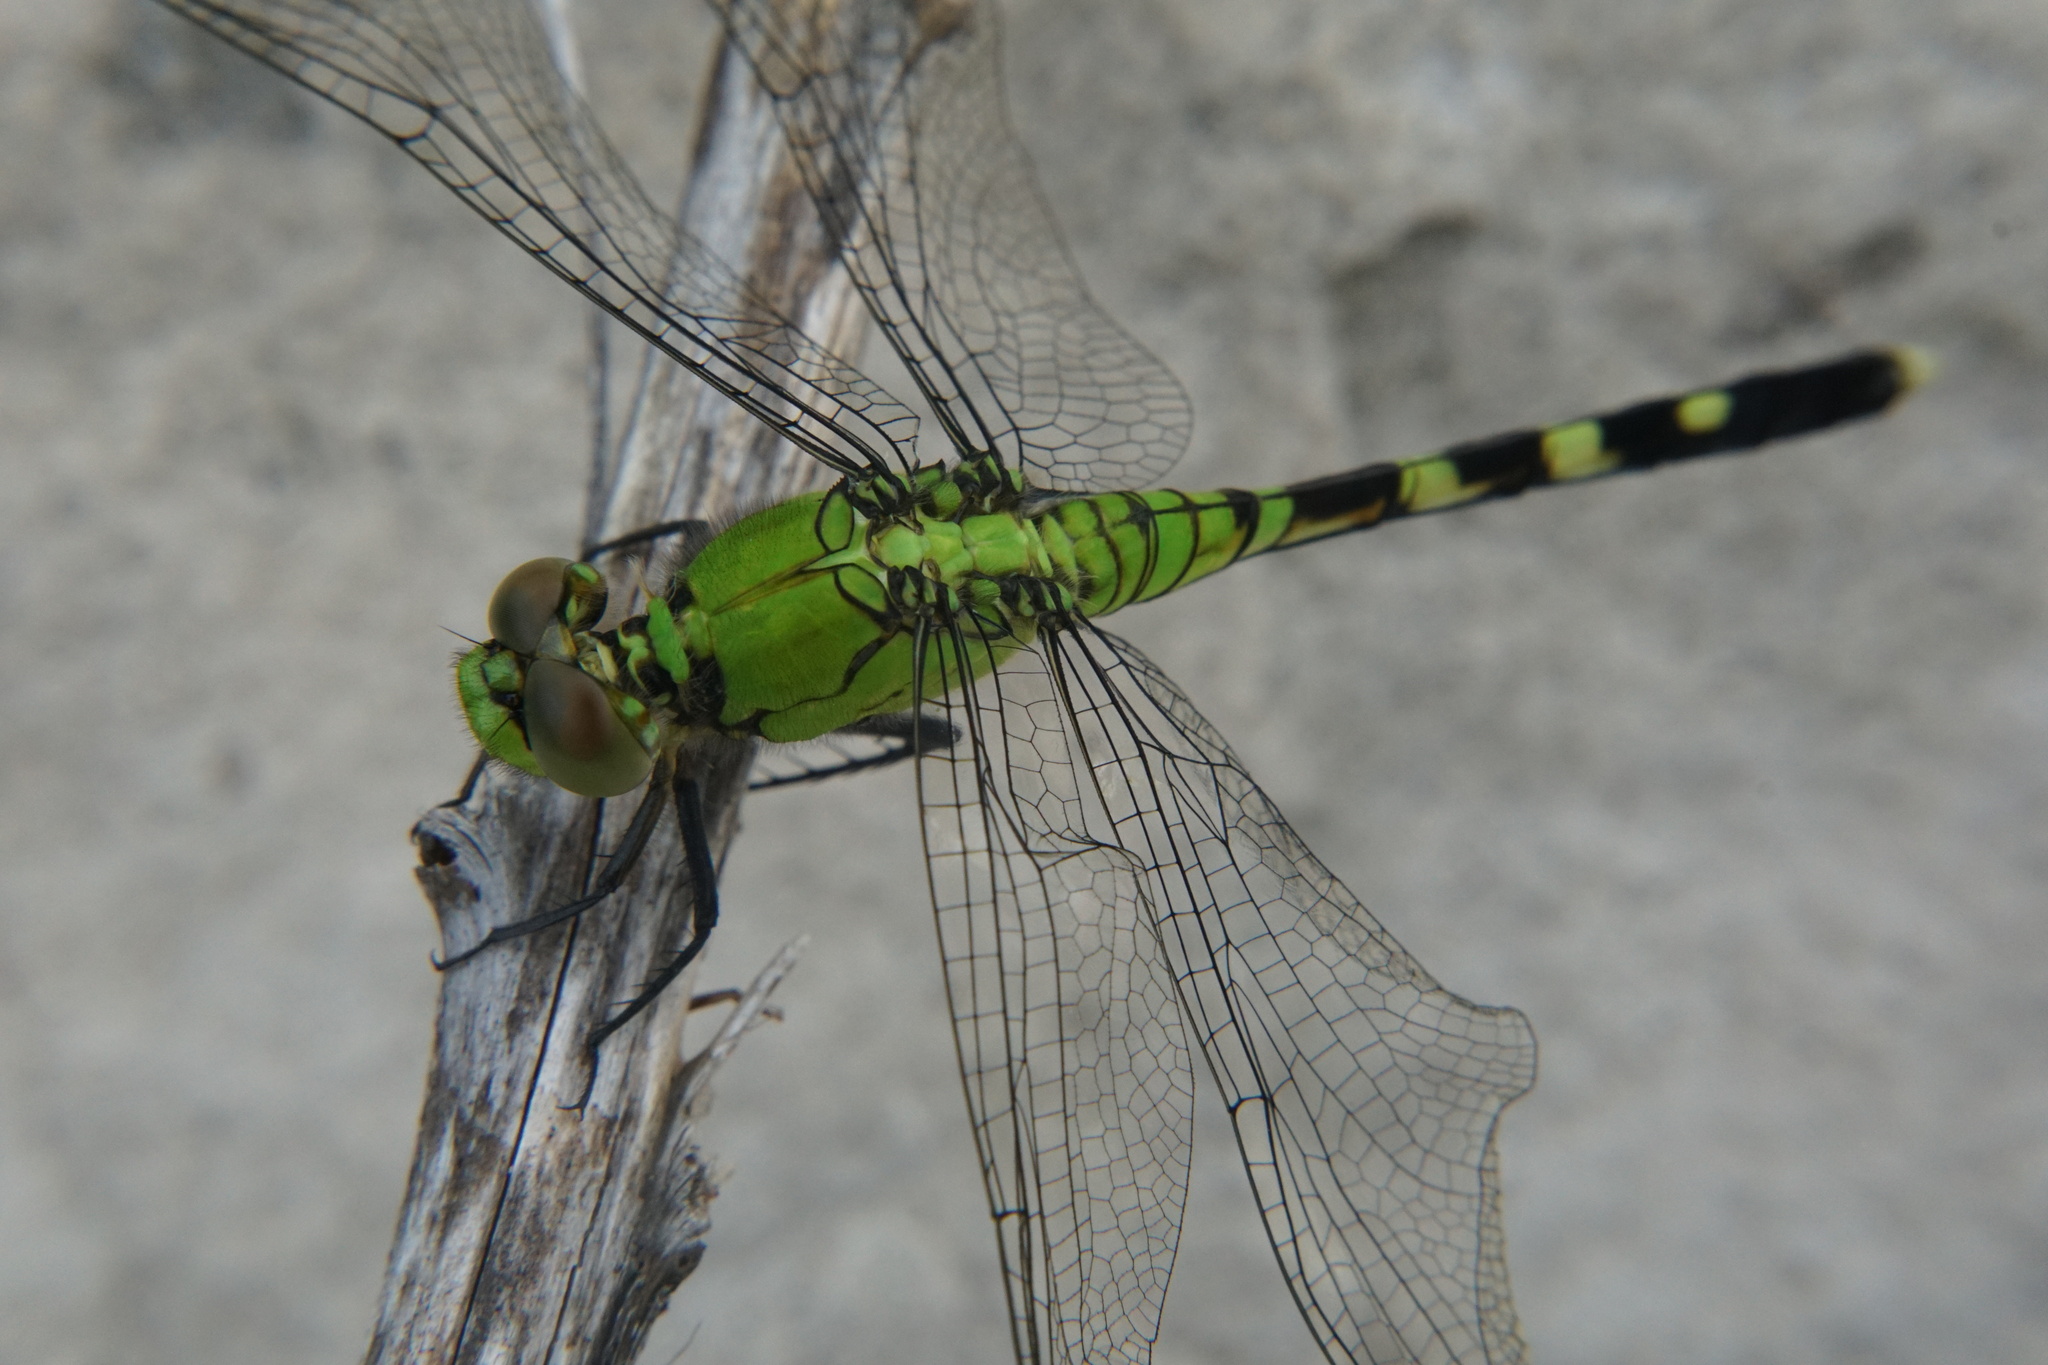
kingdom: Animalia
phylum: Arthropoda
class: Insecta
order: Odonata
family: Libellulidae
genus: Erythemis
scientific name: Erythemis simplicicollis
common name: Eastern pondhawk
